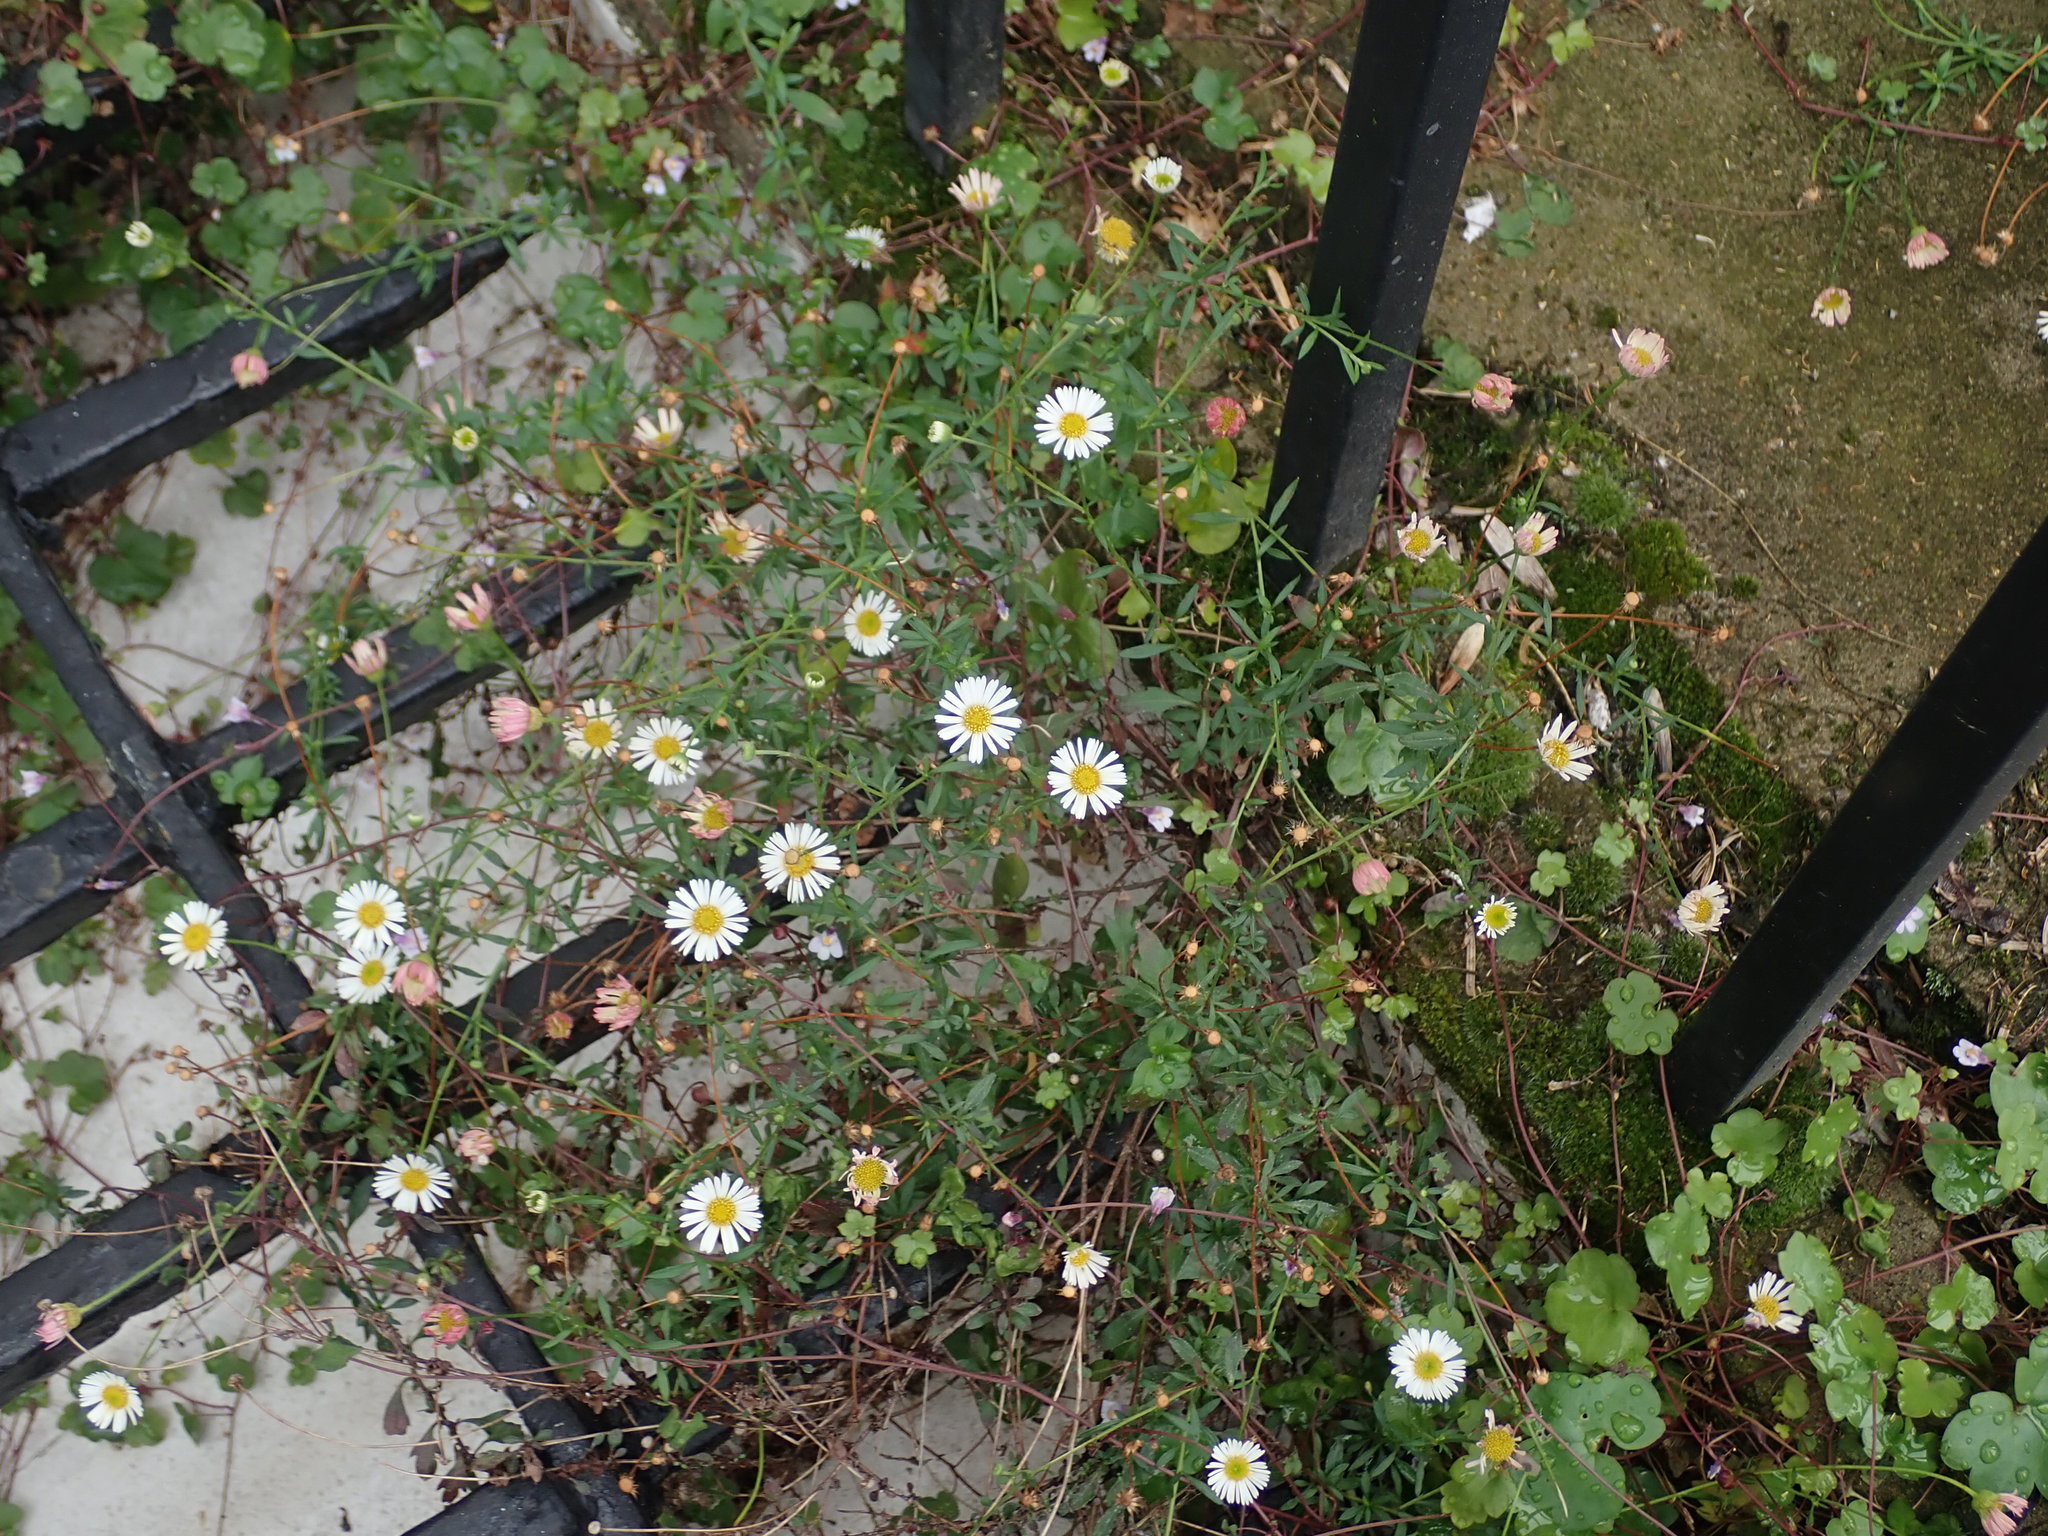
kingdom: Plantae
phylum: Tracheophyta
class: Magnoliopsida
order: Asterales
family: Asteraceae
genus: Erigeron
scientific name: Erigeron karvinskianus
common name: Mexican fleabane
